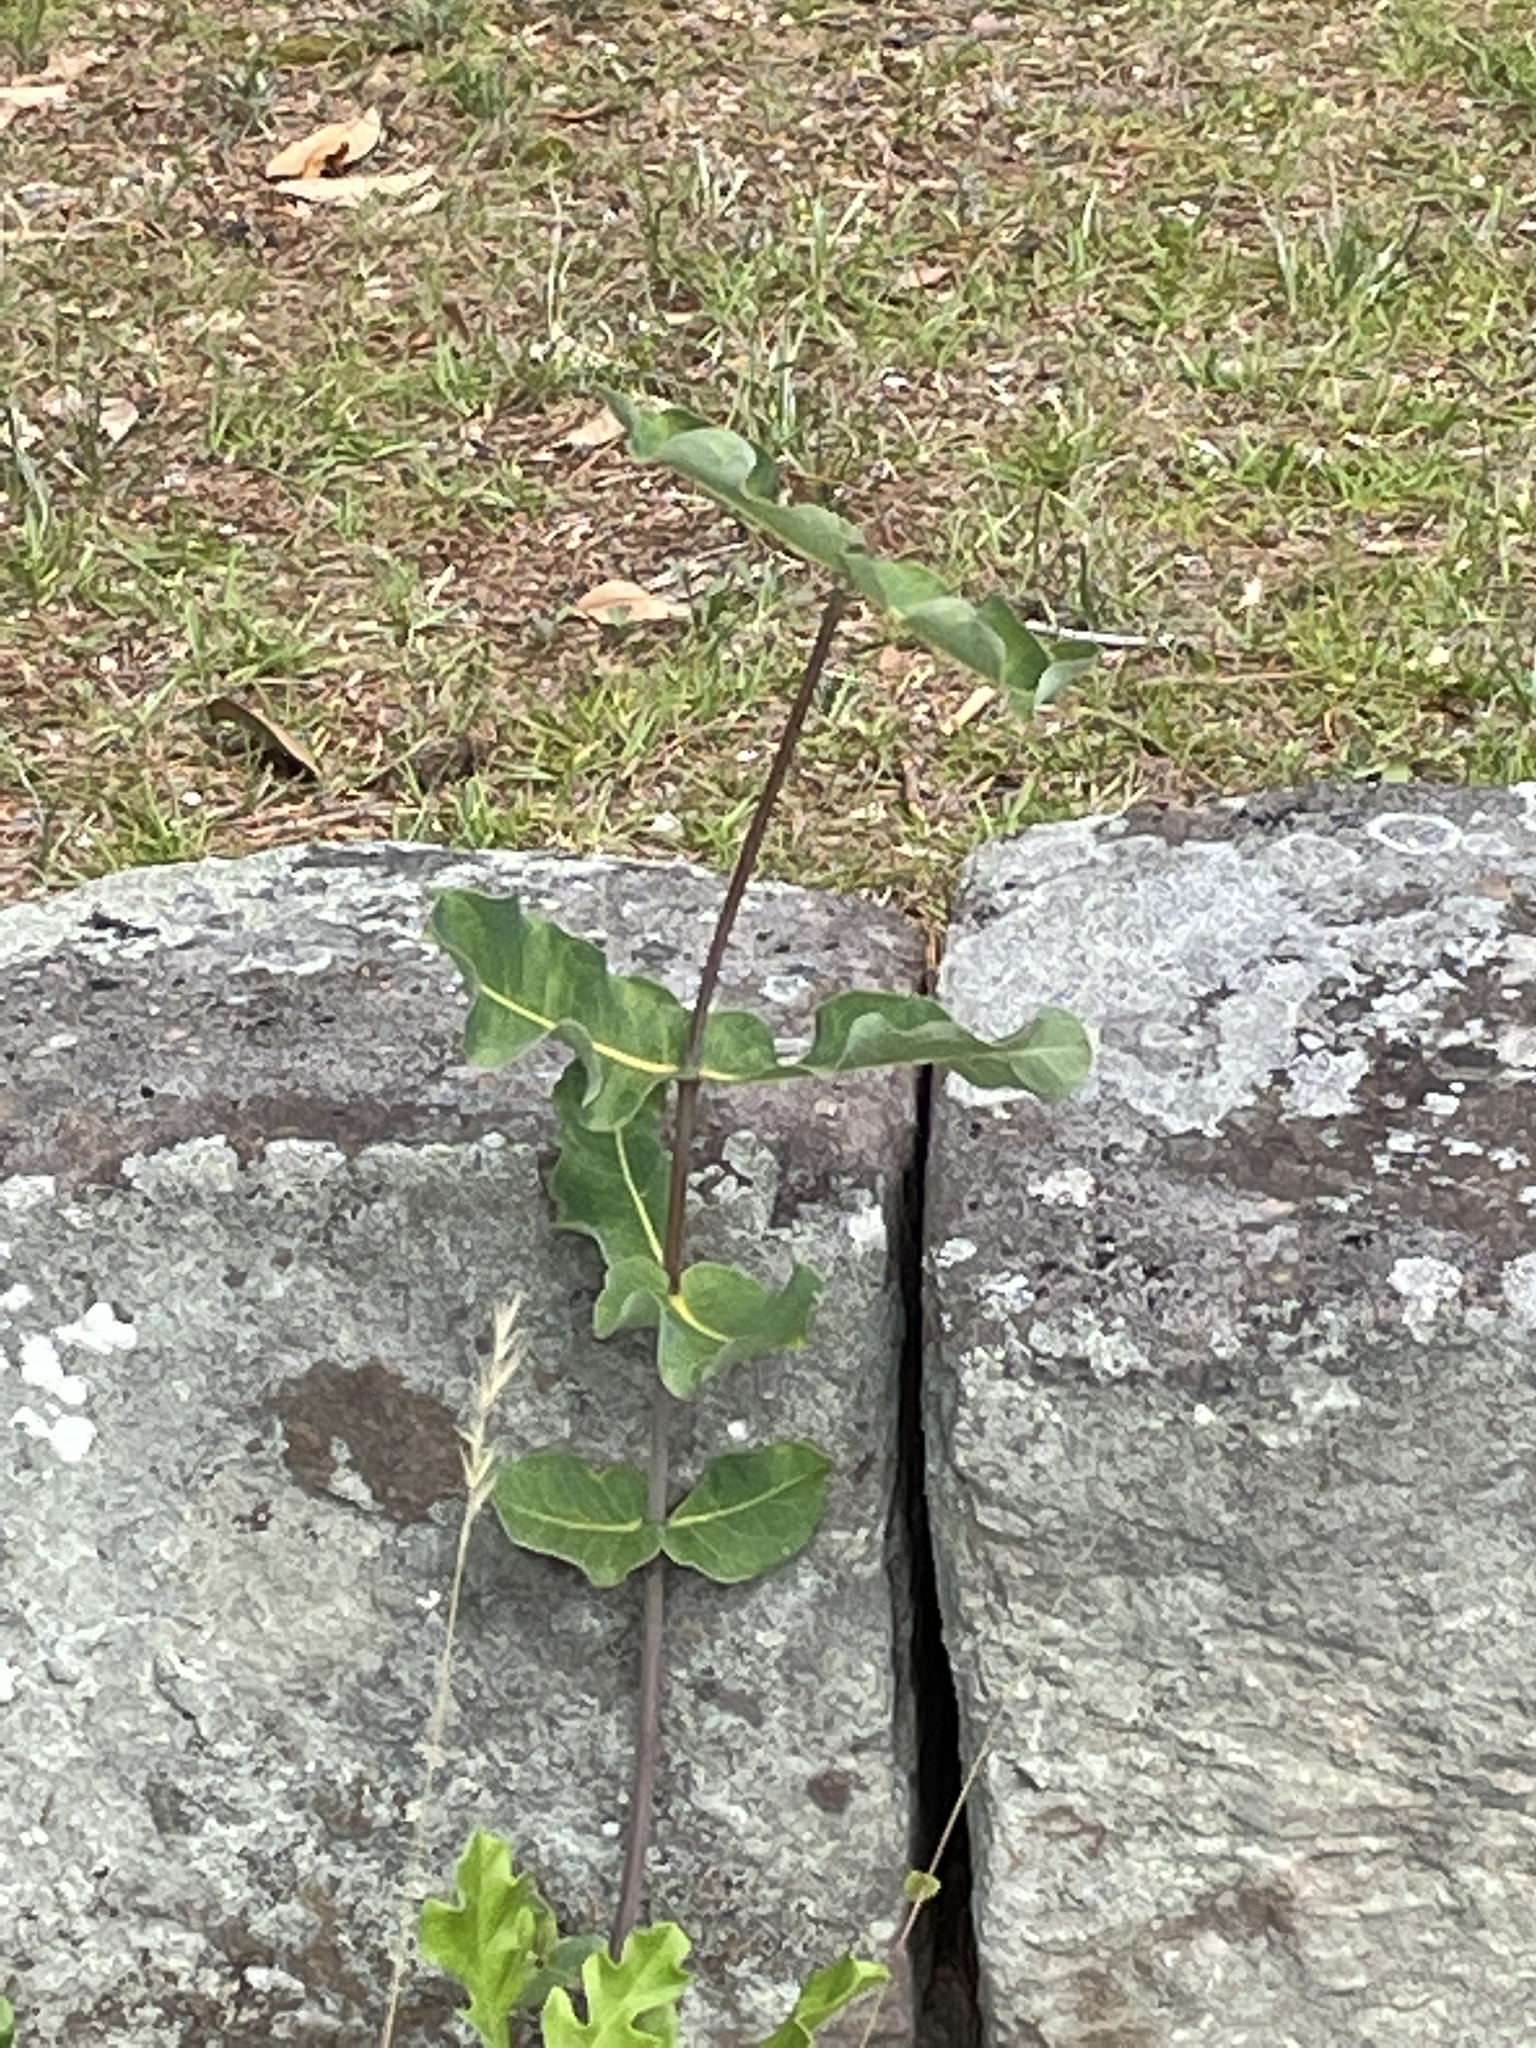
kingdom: Plantae
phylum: Tracheophyta
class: Magnoliopsida
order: Gentianales
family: Apocynaceae
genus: Asclepias
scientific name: Asclepias amplexicaulis
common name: Blunt-leaf milkweed
